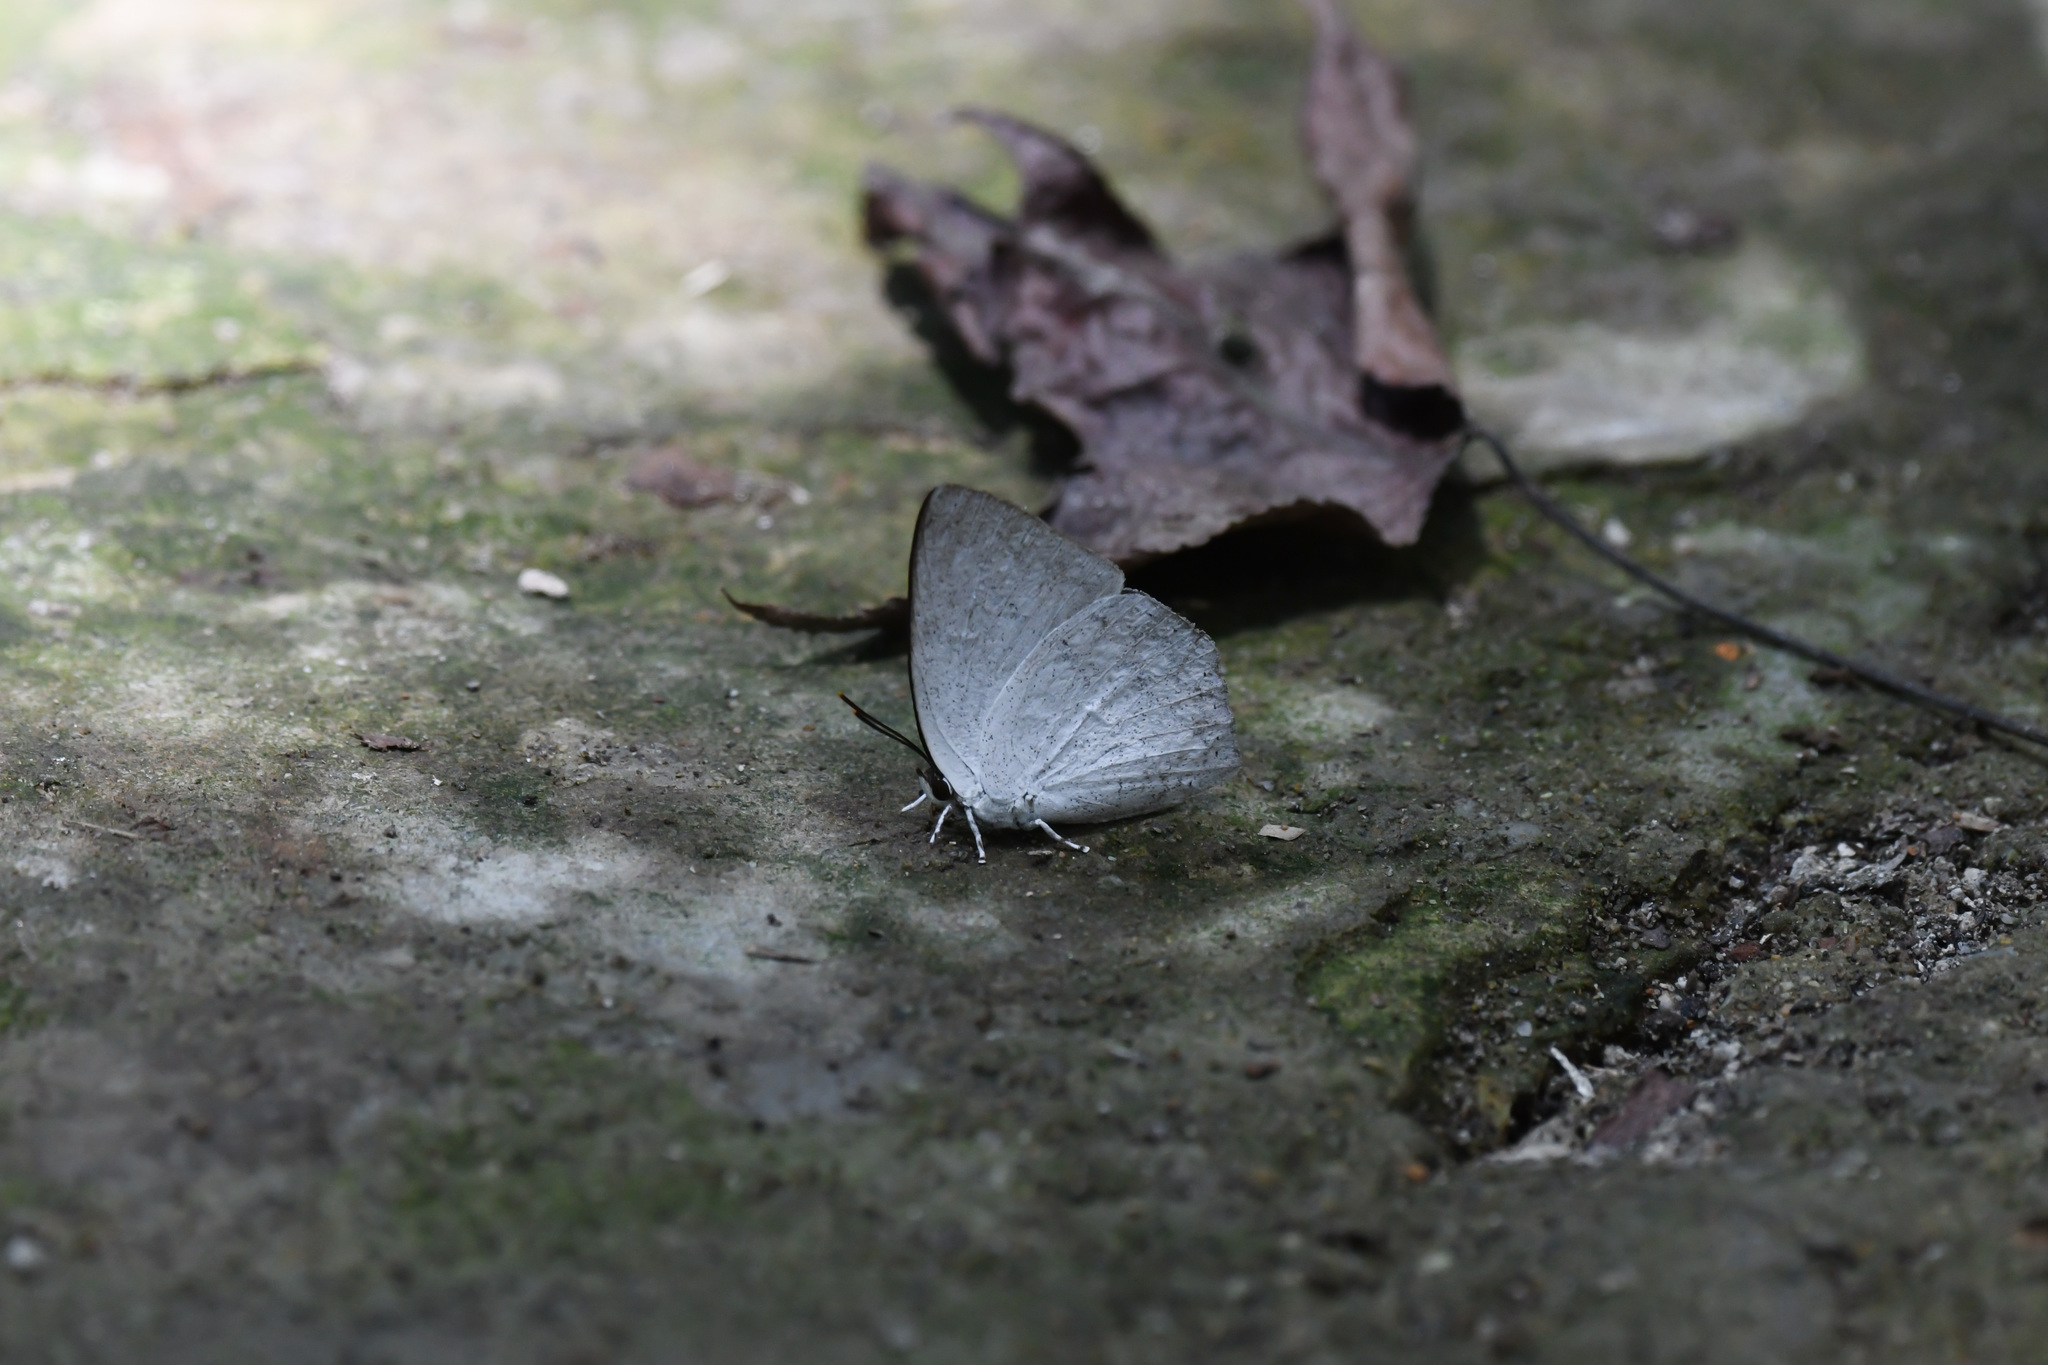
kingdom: Animalia
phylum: Arthropoda
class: Insecta
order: Lepidoptera
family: Lycaenidae
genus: Curetis
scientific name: Curetis acuta
